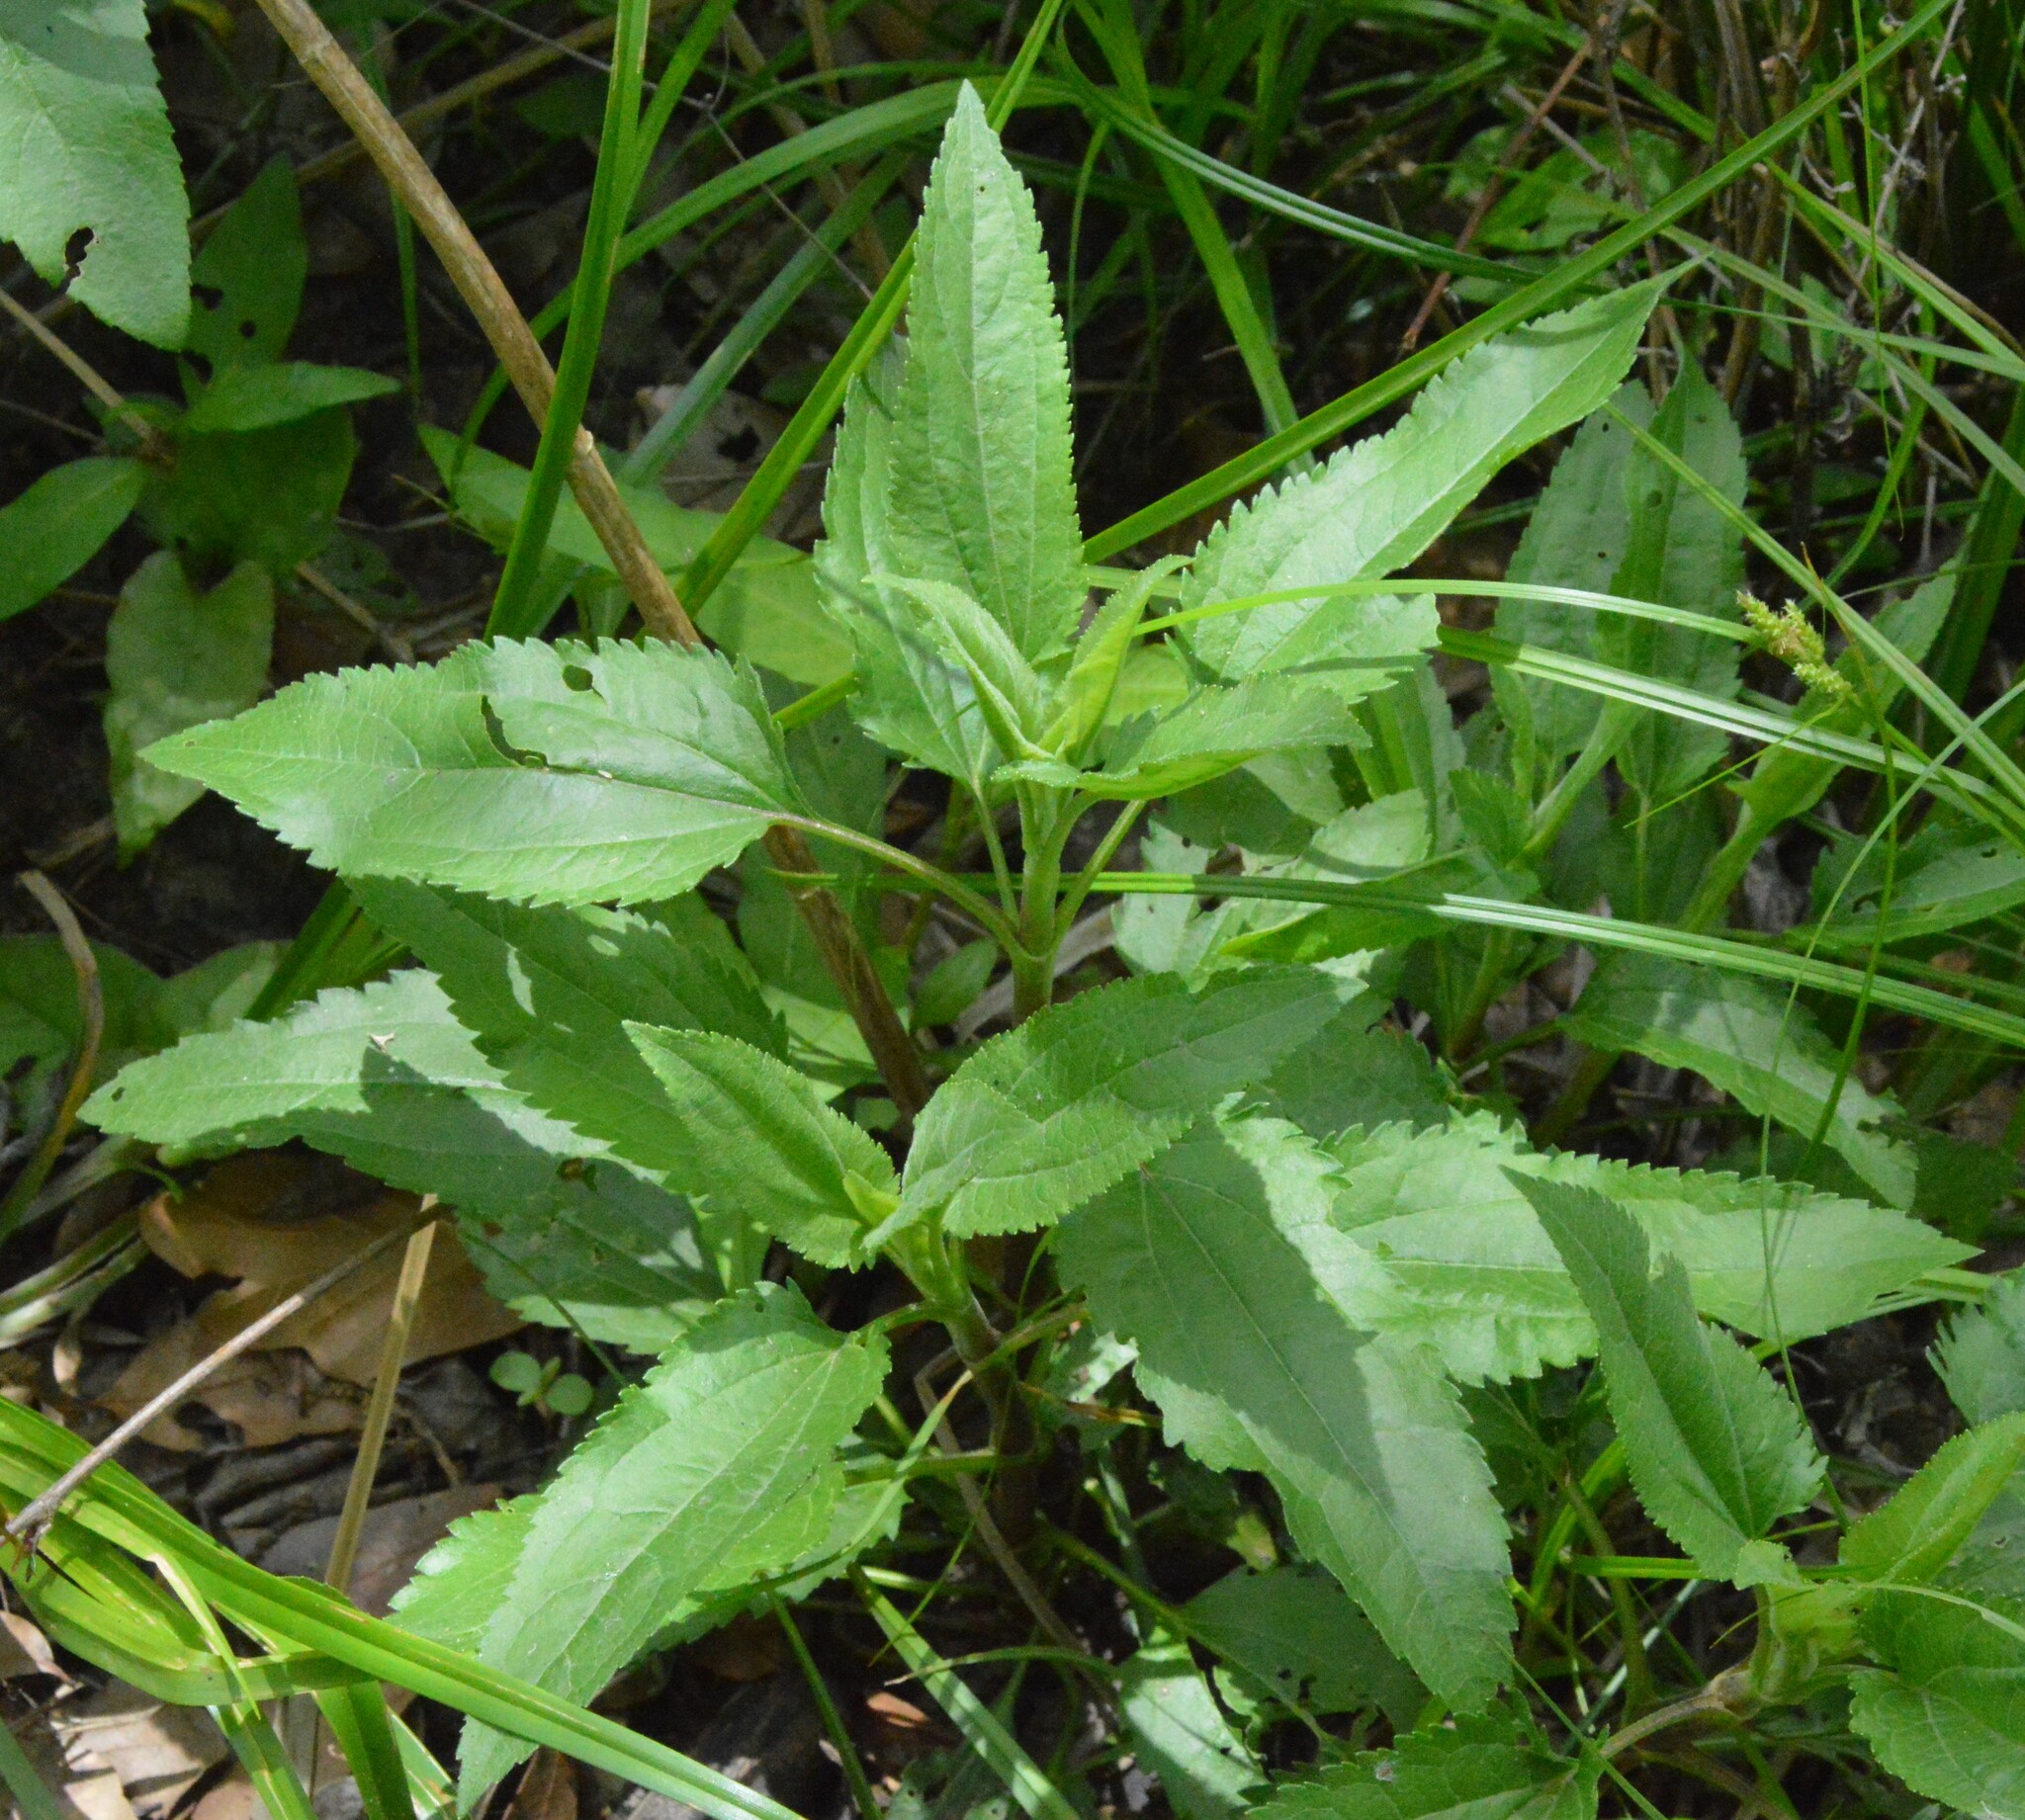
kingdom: Plantae
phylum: Tracheophyta
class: Magnoliopsida
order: Asterales
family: Asteraceae
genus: Eupatorium
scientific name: Eupatorium serotinum
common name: Late boneset
